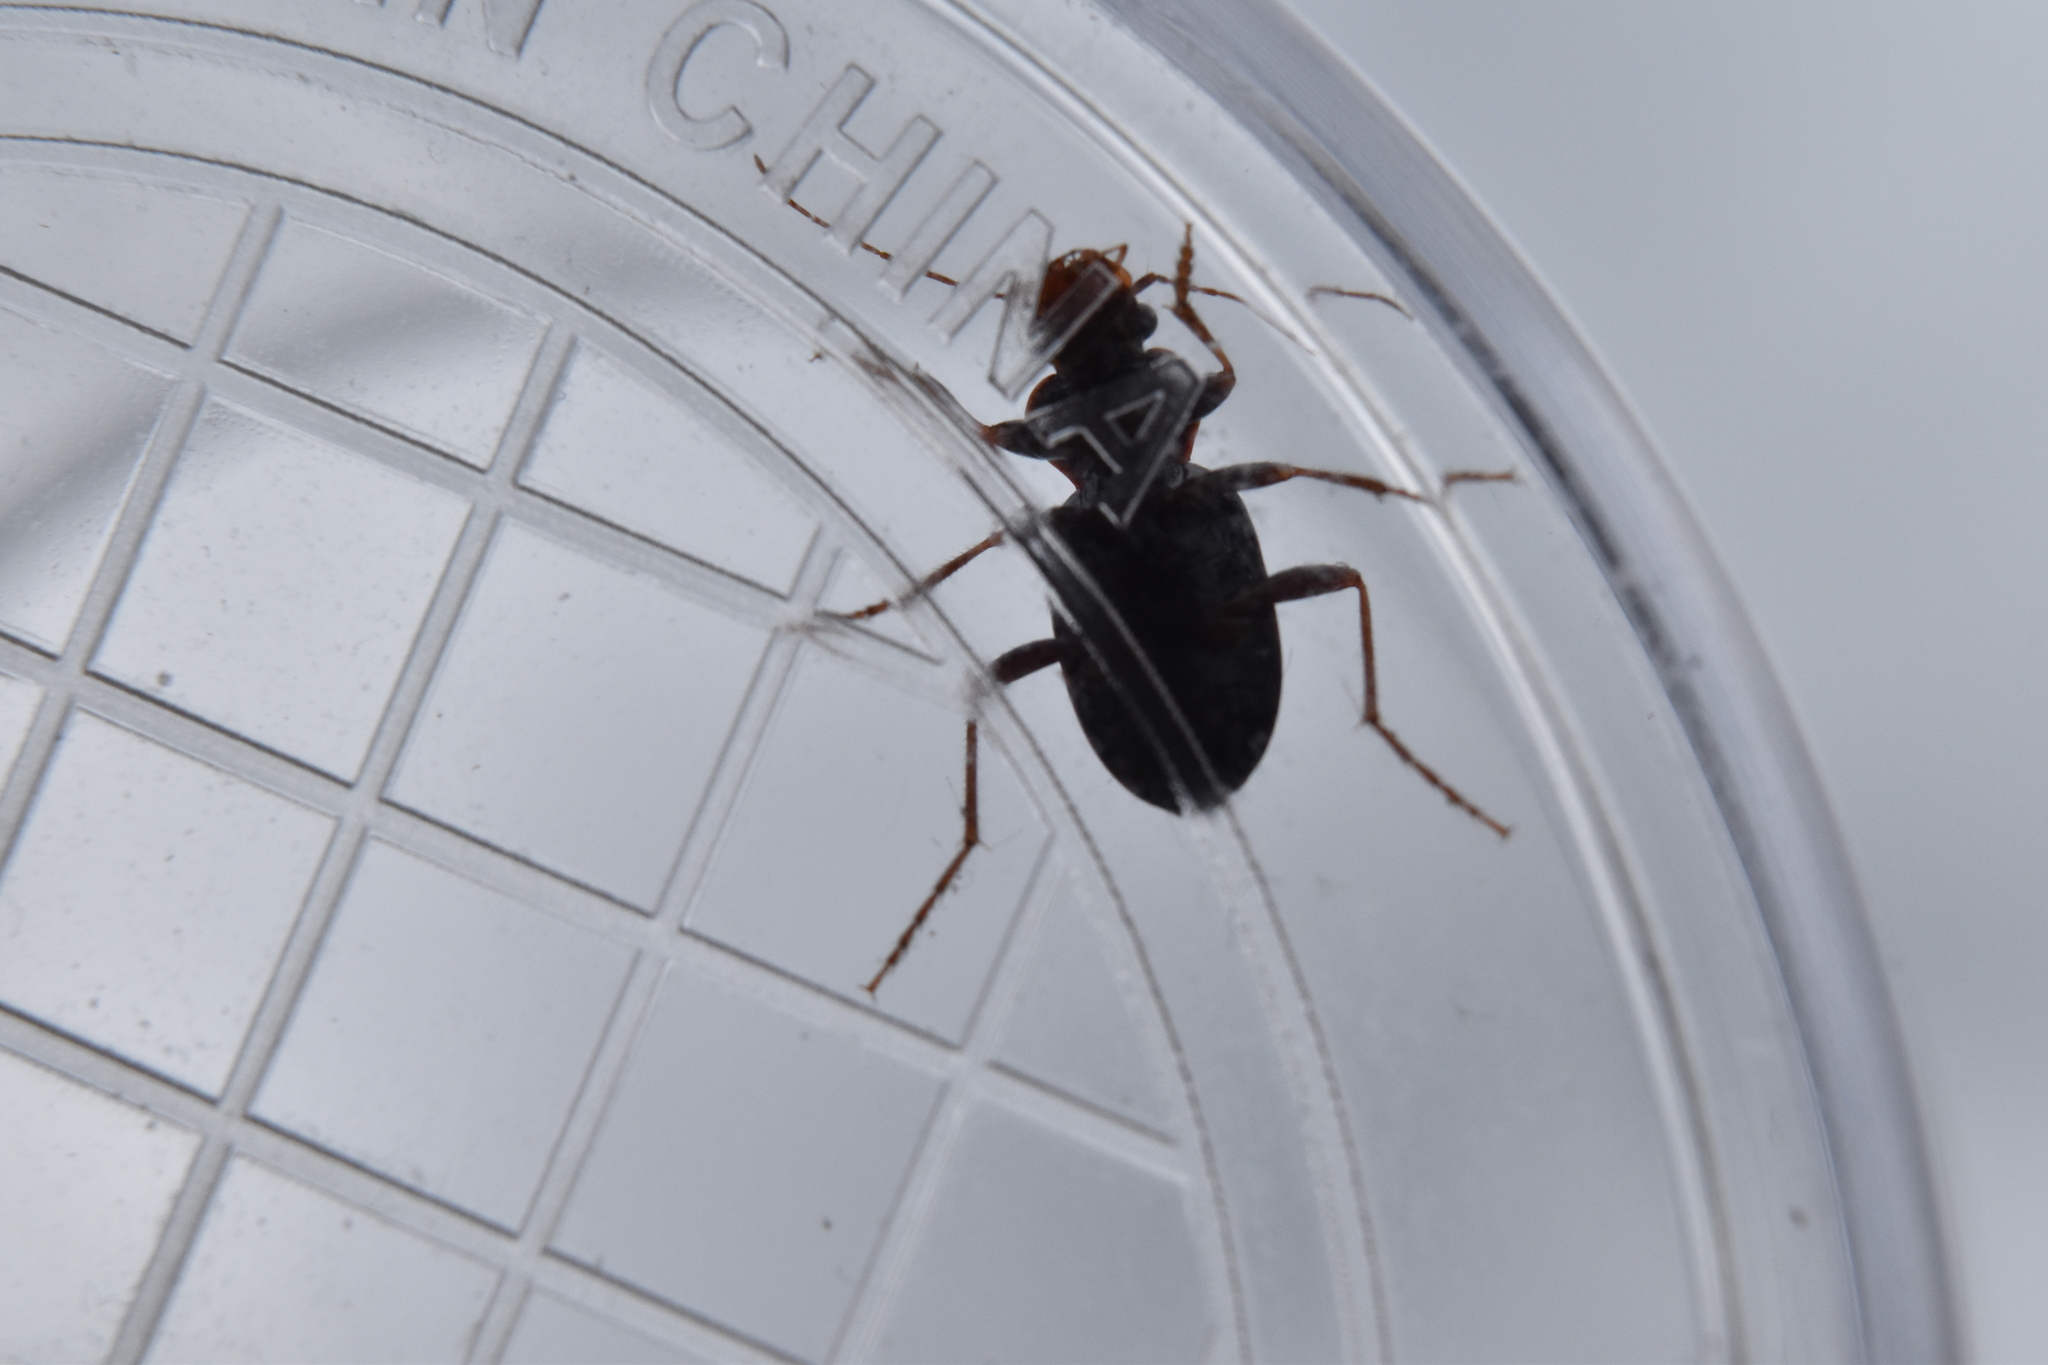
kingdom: Animalia
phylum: Arthropoda
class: Insecta
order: Coleoptera
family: Carabidae
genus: Leistus
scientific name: Leistus spinibarbis
